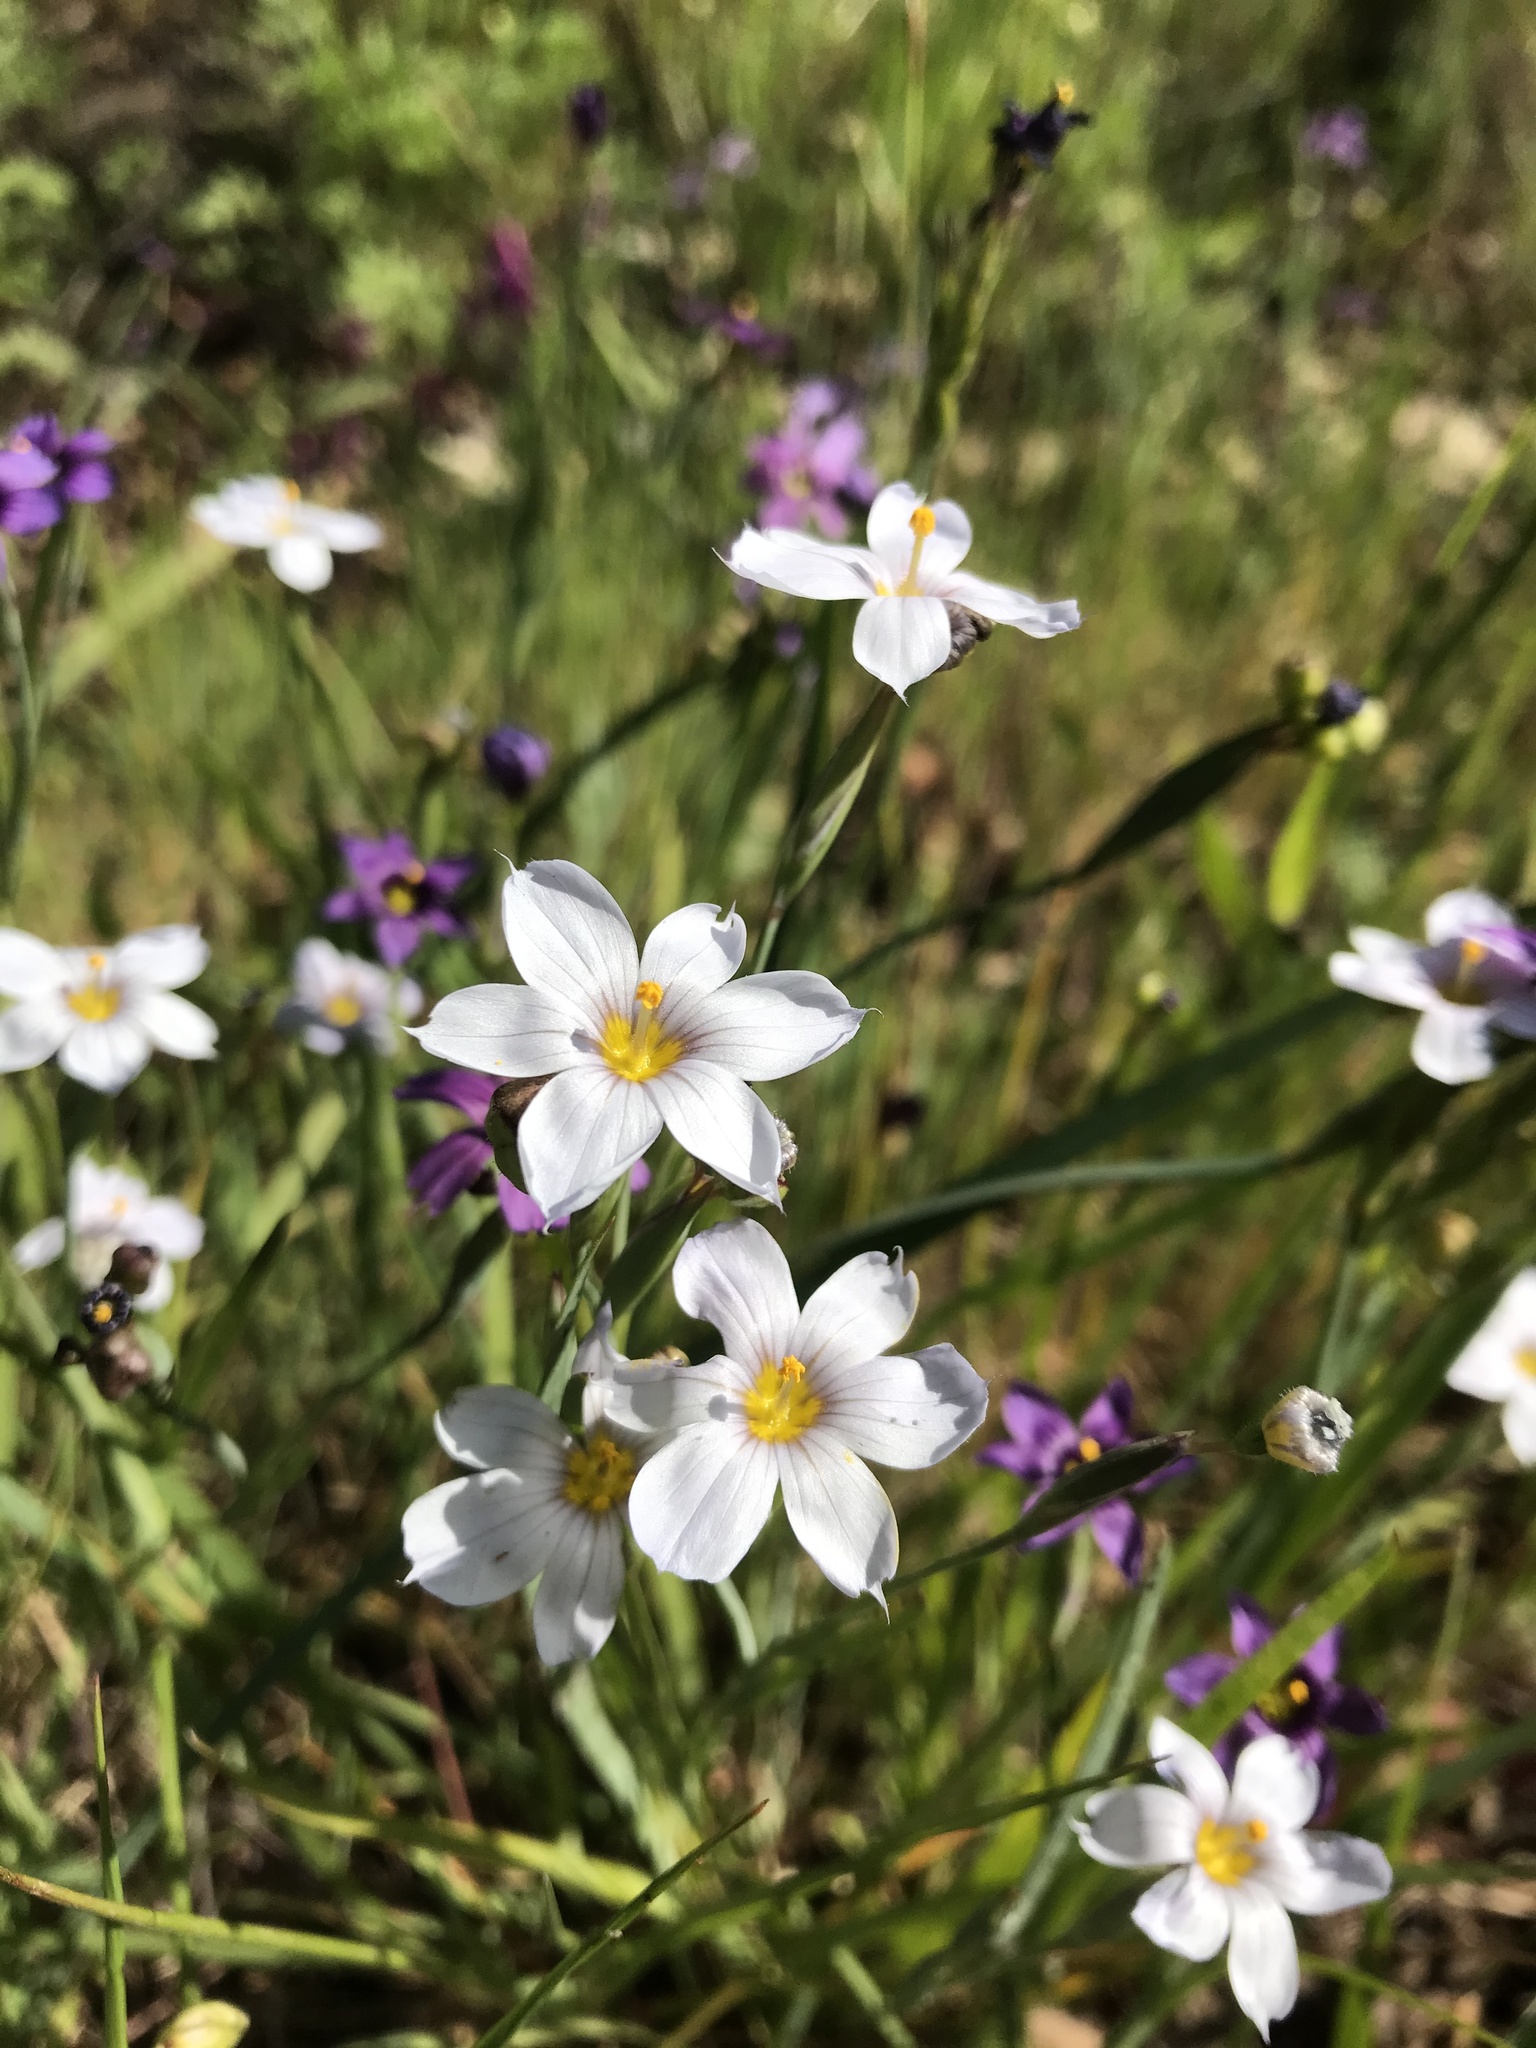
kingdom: Plantae
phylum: Tracheophyta
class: Liliopsida
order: Asparagales
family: Iridaceae
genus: Sisyrinchium
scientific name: Sisyrinchium bellum
